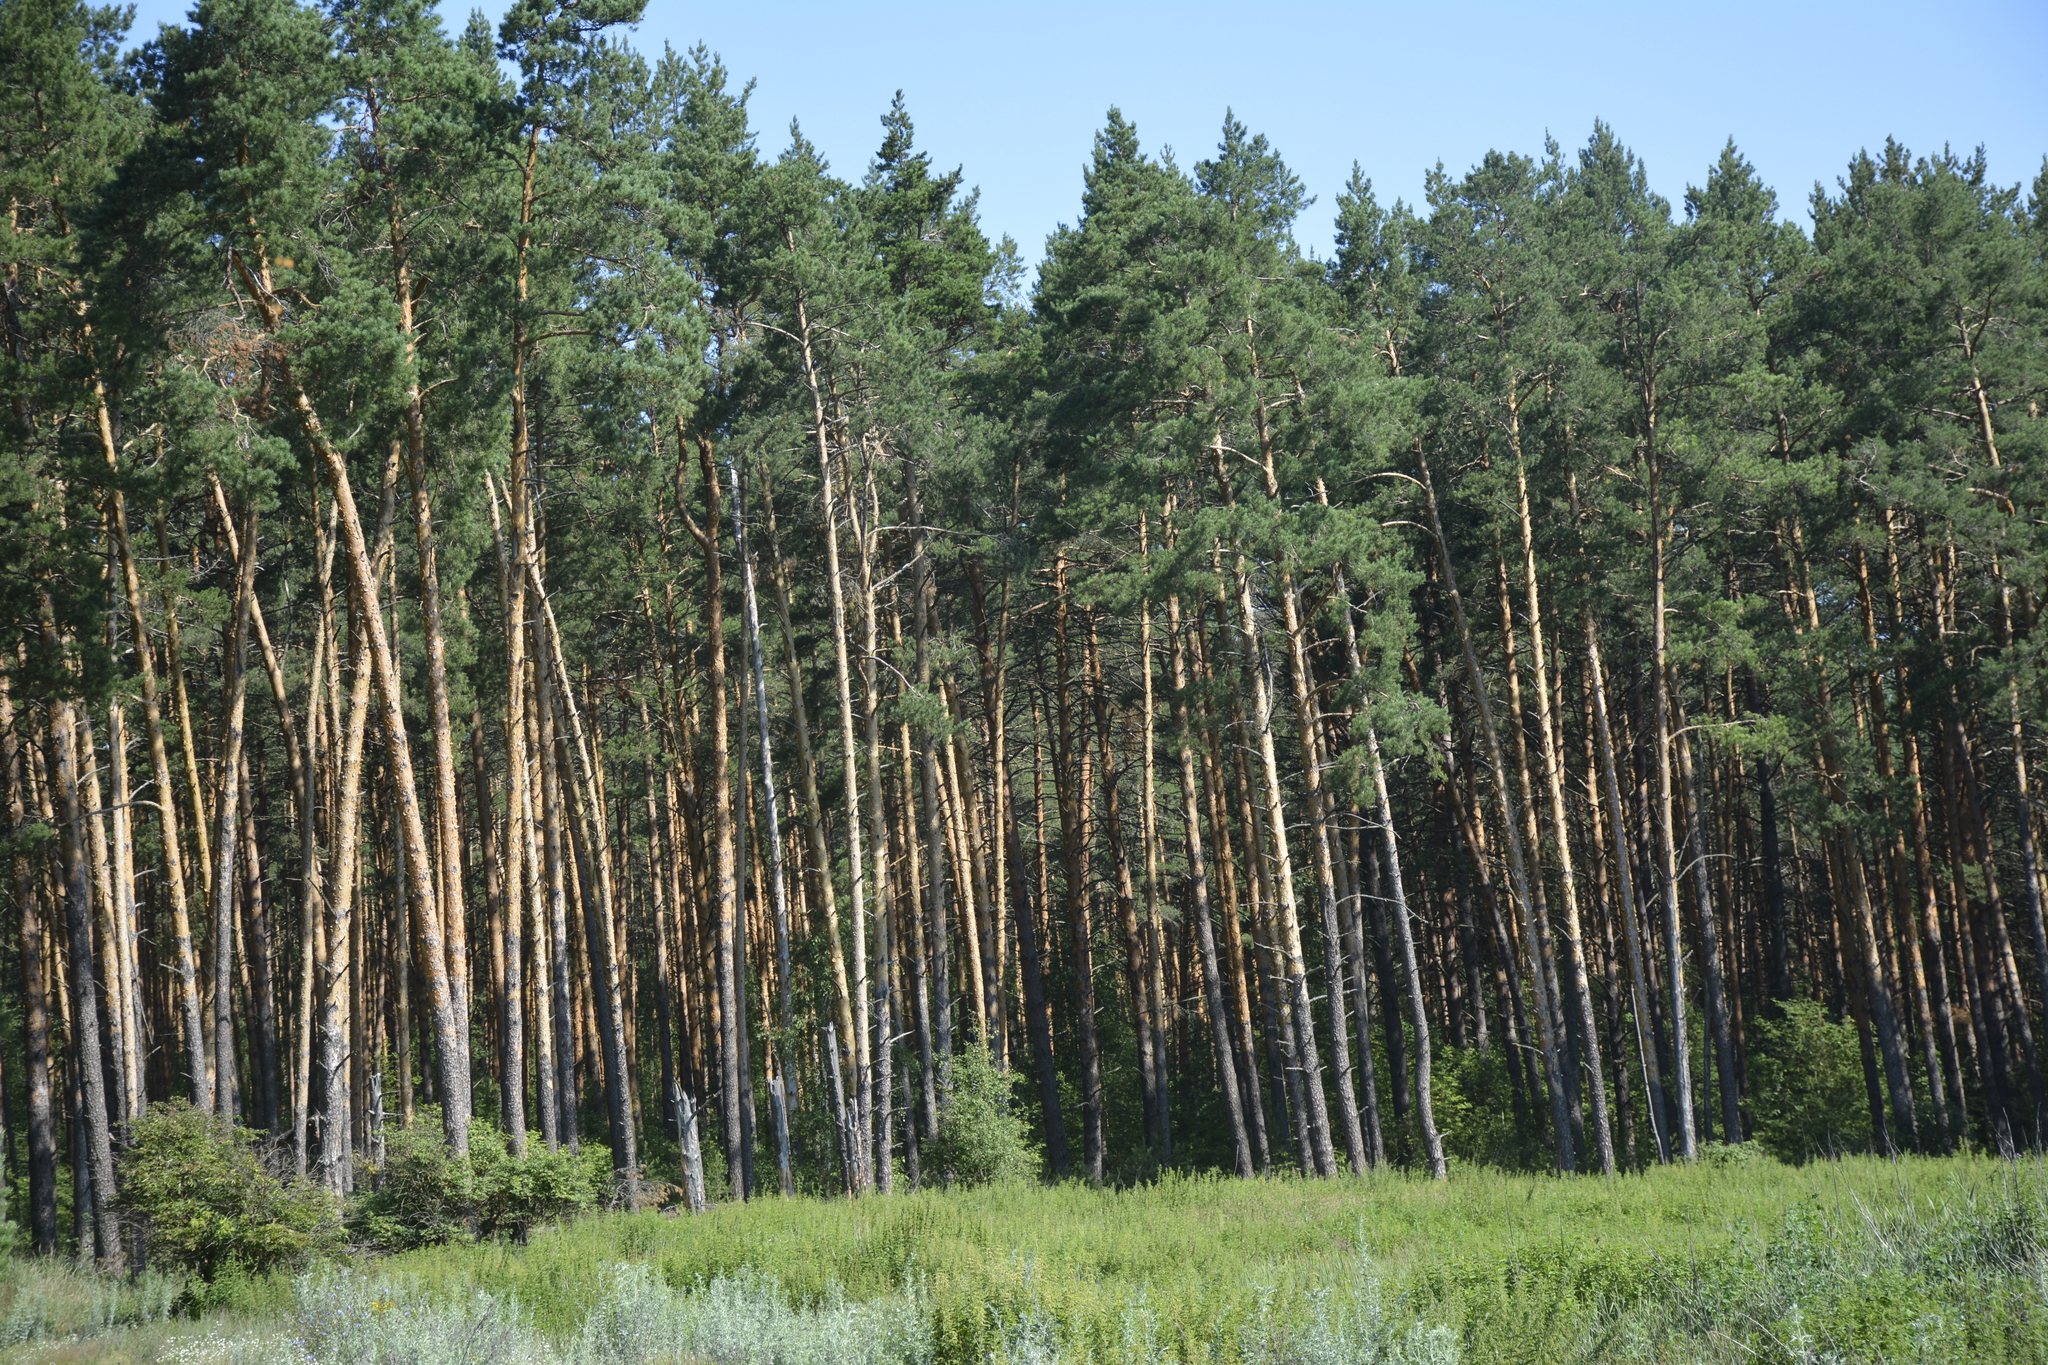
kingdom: Plantae
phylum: Tracheophyta
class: Pinopsida
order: Pinales
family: Pinaceae
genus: Pinus
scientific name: Pinus sylvestris
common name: Scots pine
